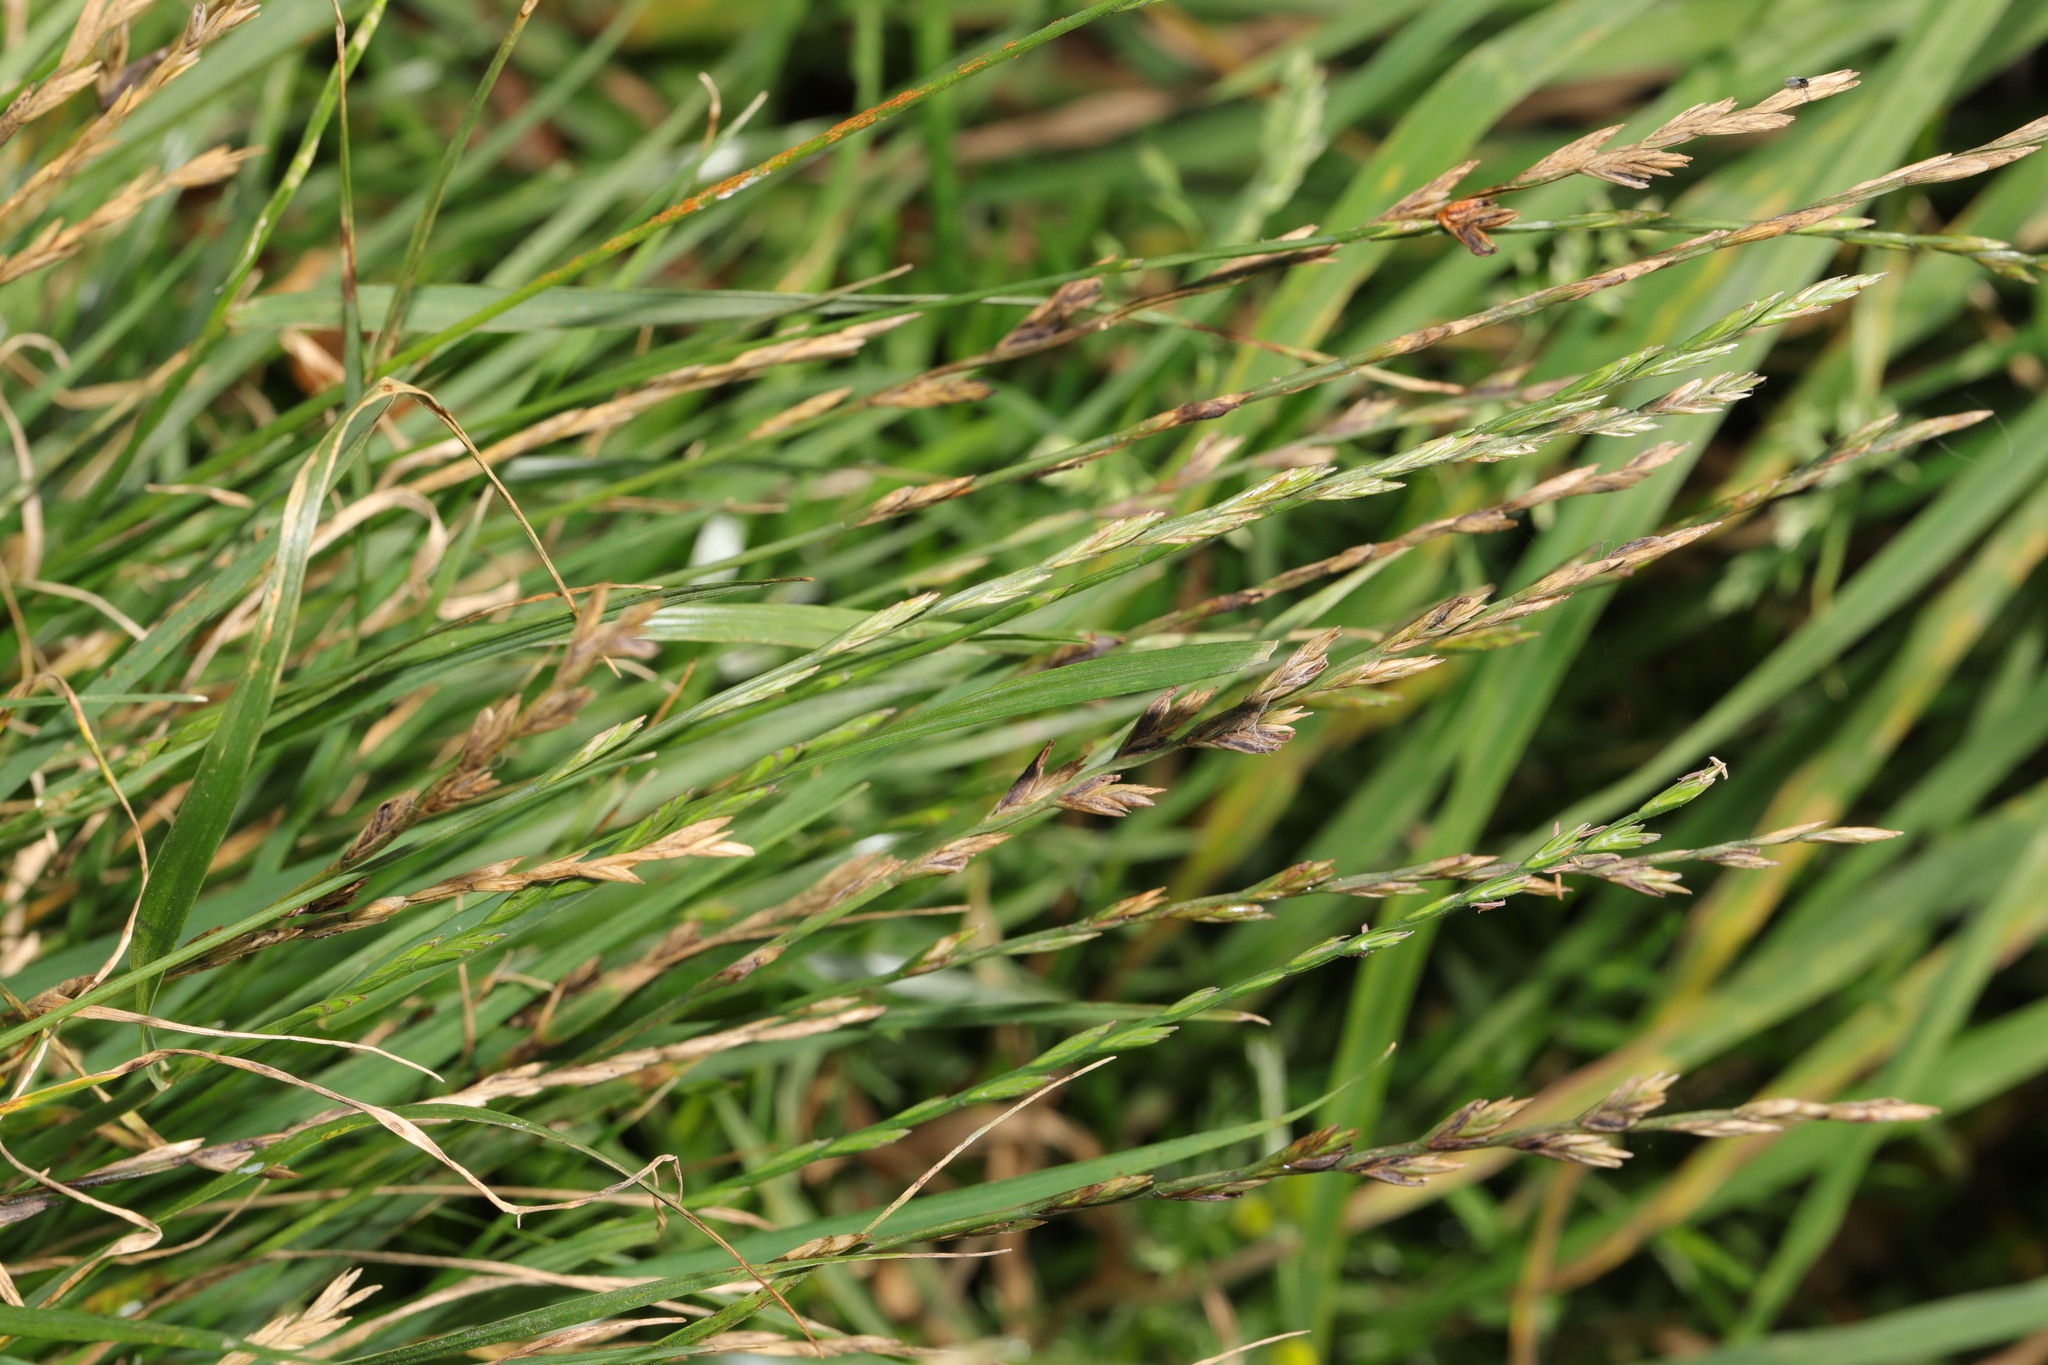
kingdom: Plantae
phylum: Tracheophyta
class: Liliopsida
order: Poales
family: Poaceae
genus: Lolium
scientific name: Lolium perenne
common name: Perennial ryegrass
